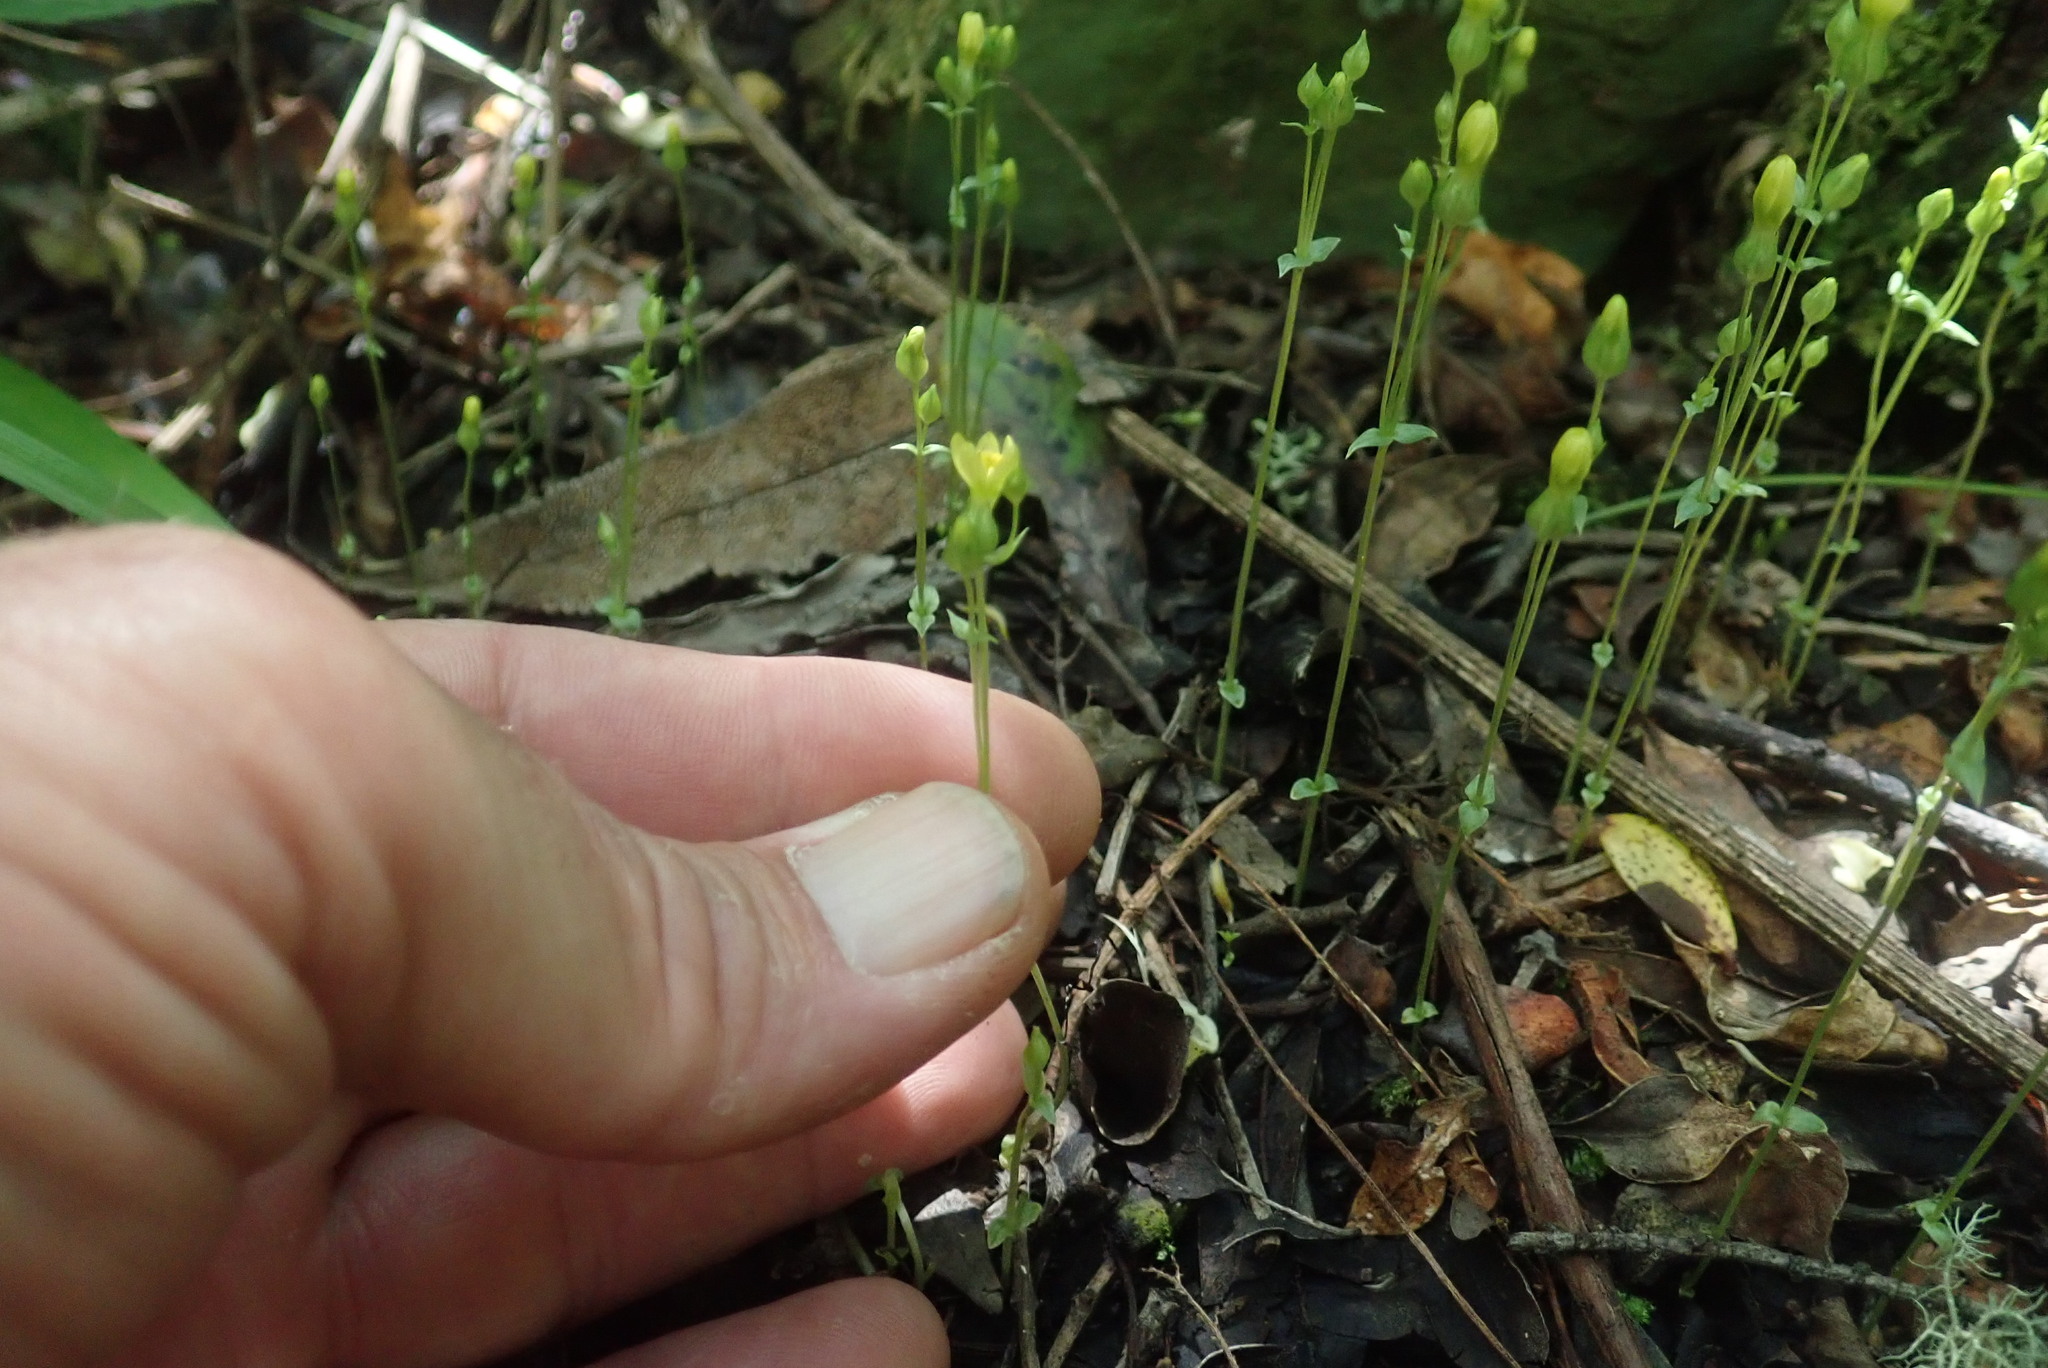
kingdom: Plantae
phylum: Tracheophyta
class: Magnoliopsida
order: Gentianales
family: Gentianaceae
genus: Sebaea
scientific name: Sebaea junodii
